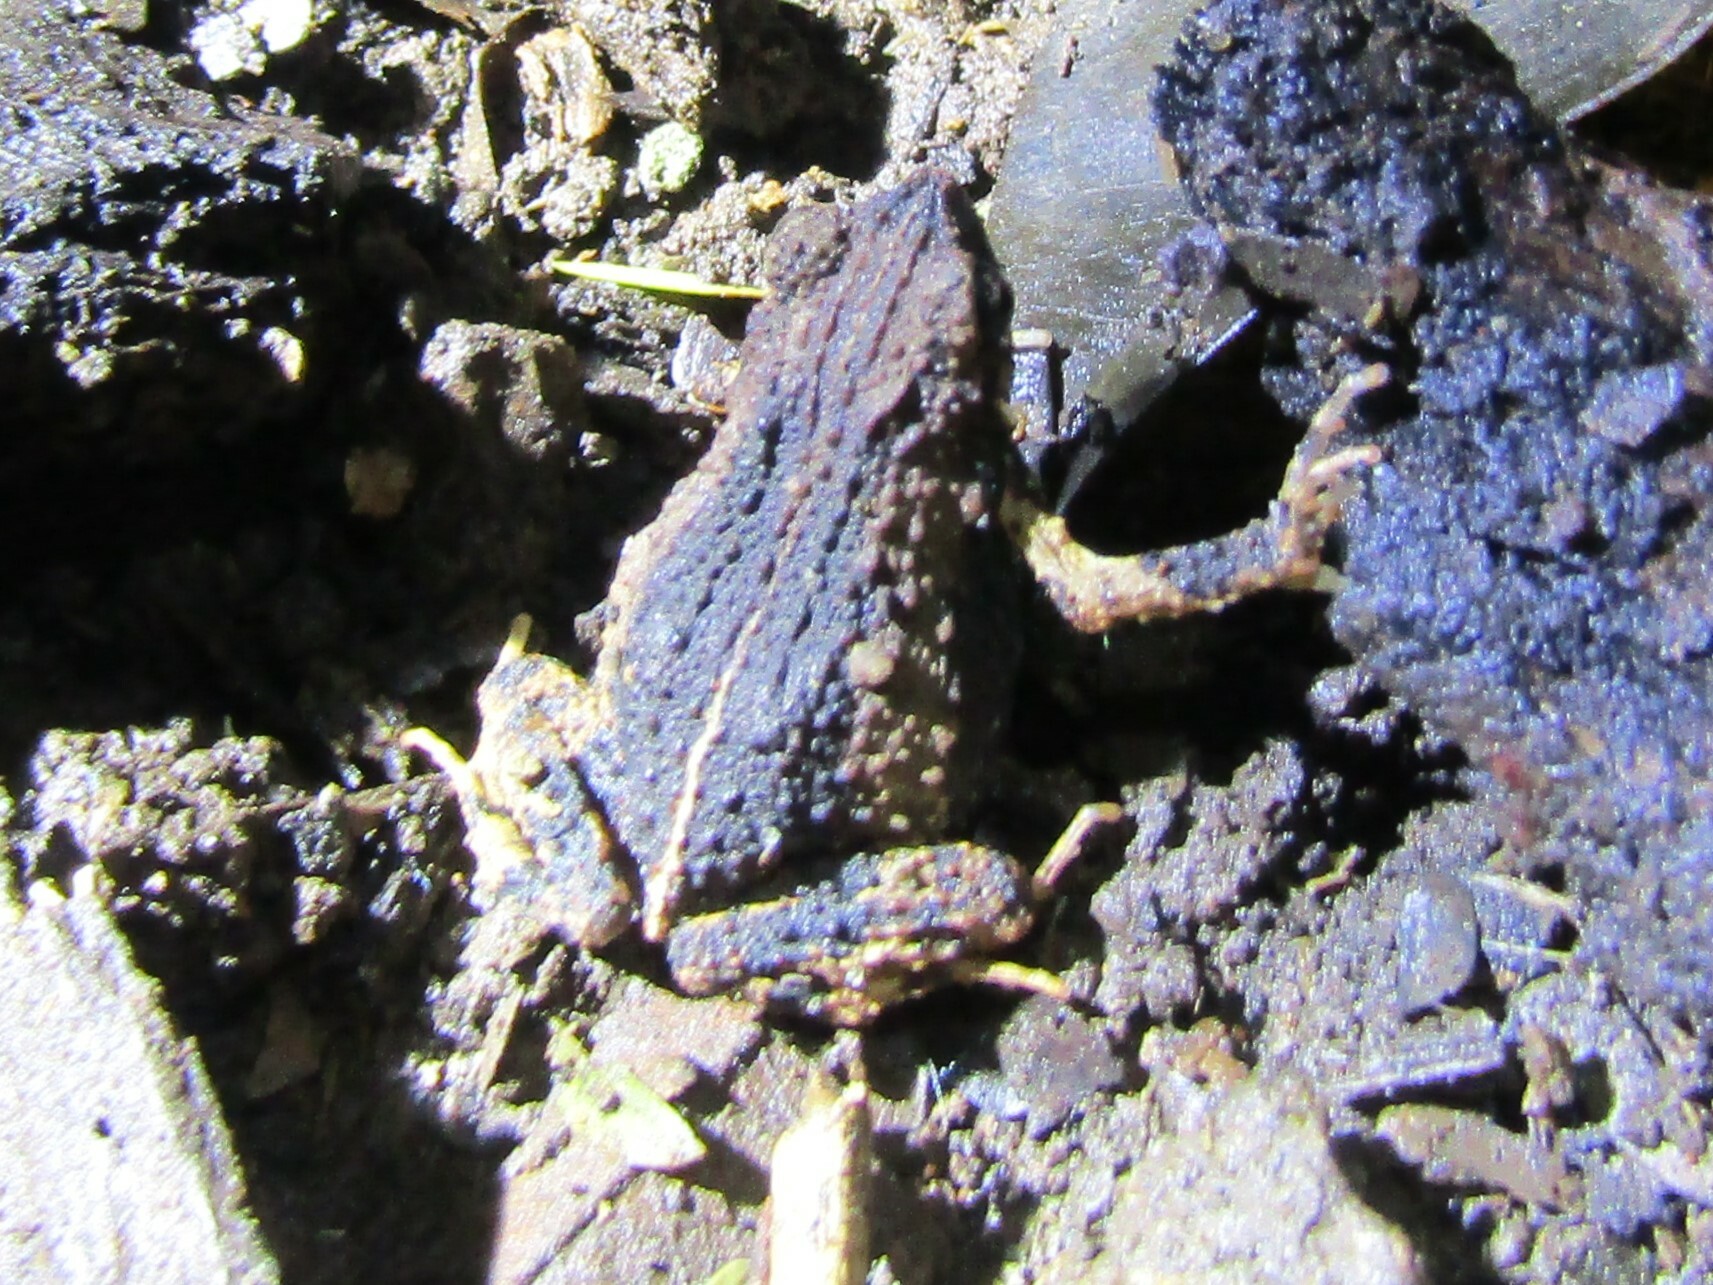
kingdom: Animalia
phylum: Chordata
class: Amphibia
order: Anura
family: Leptodactylidae
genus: Engystomops
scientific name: Engystomops pustulosus
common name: Tungara frog
